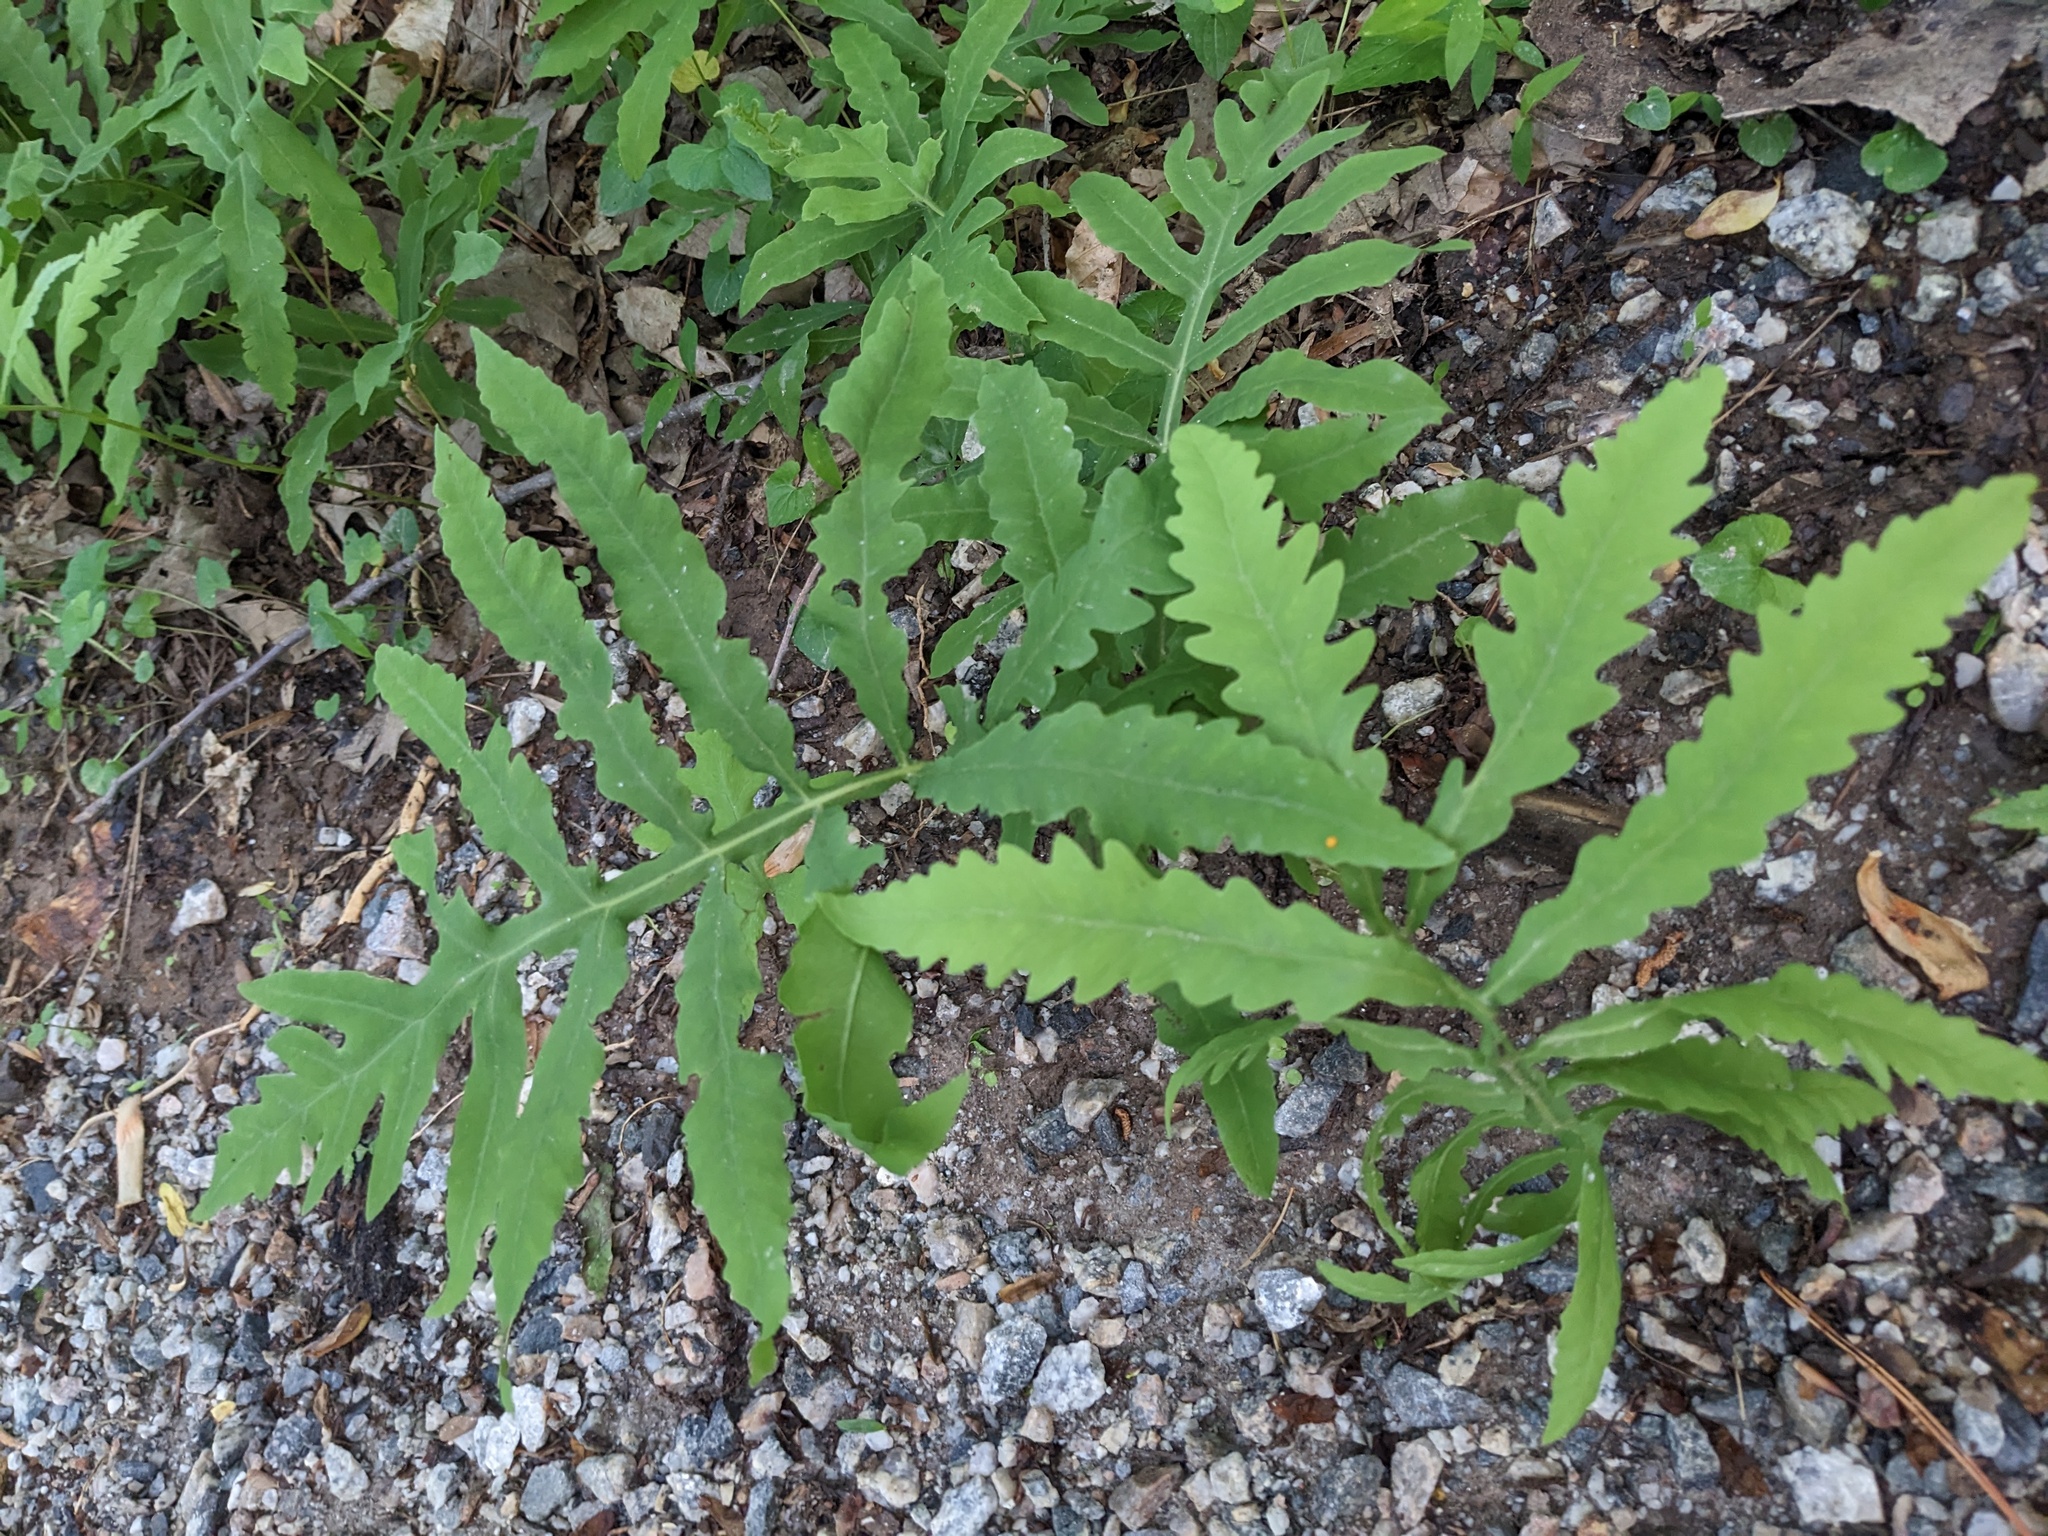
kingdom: Plantae
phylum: Tracheophyta
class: Polypodiopsida
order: Polypodiales
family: Onocleaceae
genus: Onoclea
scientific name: Onoclea sensibilis
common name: Sensitive fern
